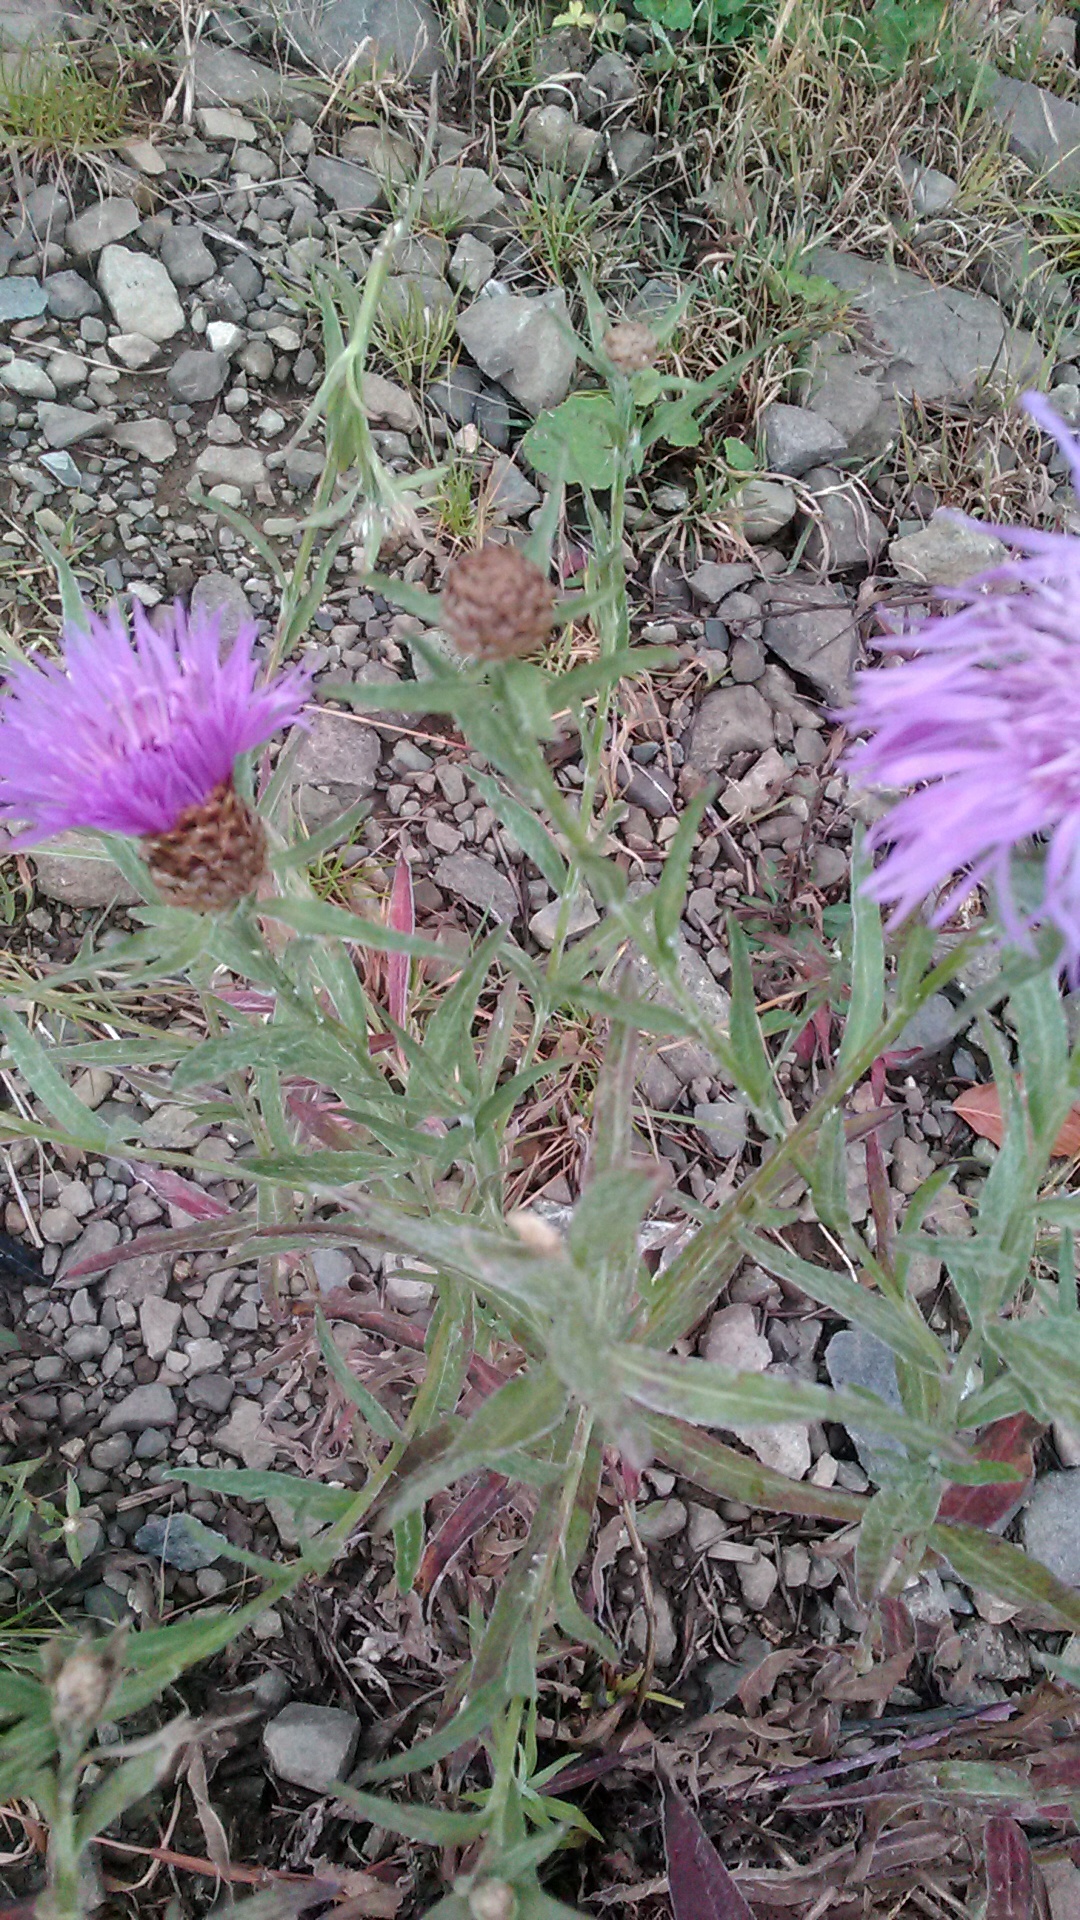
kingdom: Plantae
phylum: Tracheophyta
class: Magnoliopsida
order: Asterales
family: Asteraceae
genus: Centaurea
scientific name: Centaurea jacea
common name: Brown knapweed
